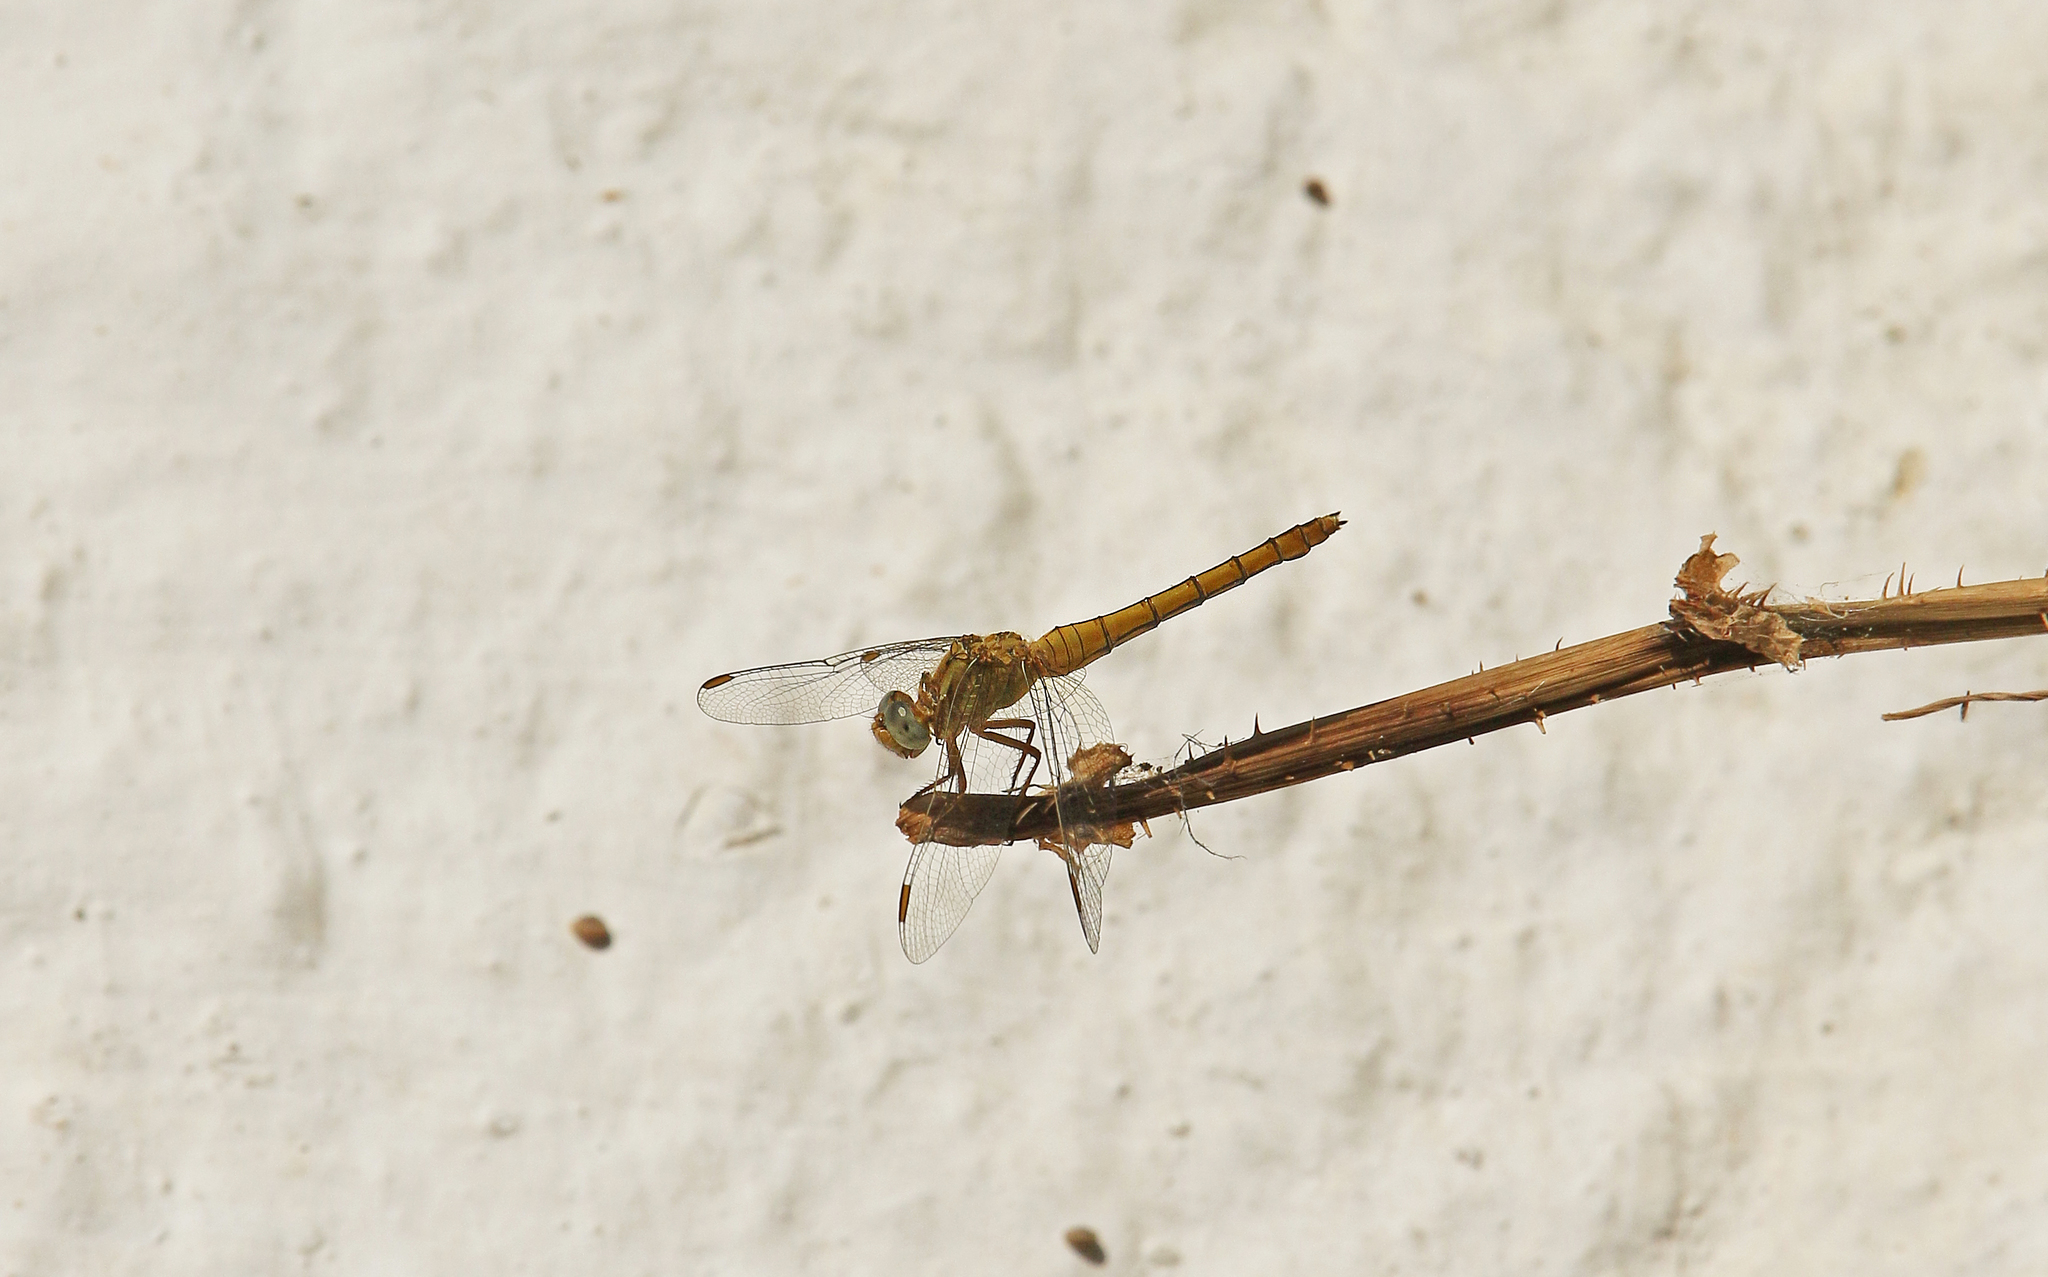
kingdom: Animalia
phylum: Arthropoda
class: Insecta
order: Odonata
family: Libellulidae
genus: Orthetrum
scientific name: Orthetrum coerulescens
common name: Keeled skimmer
